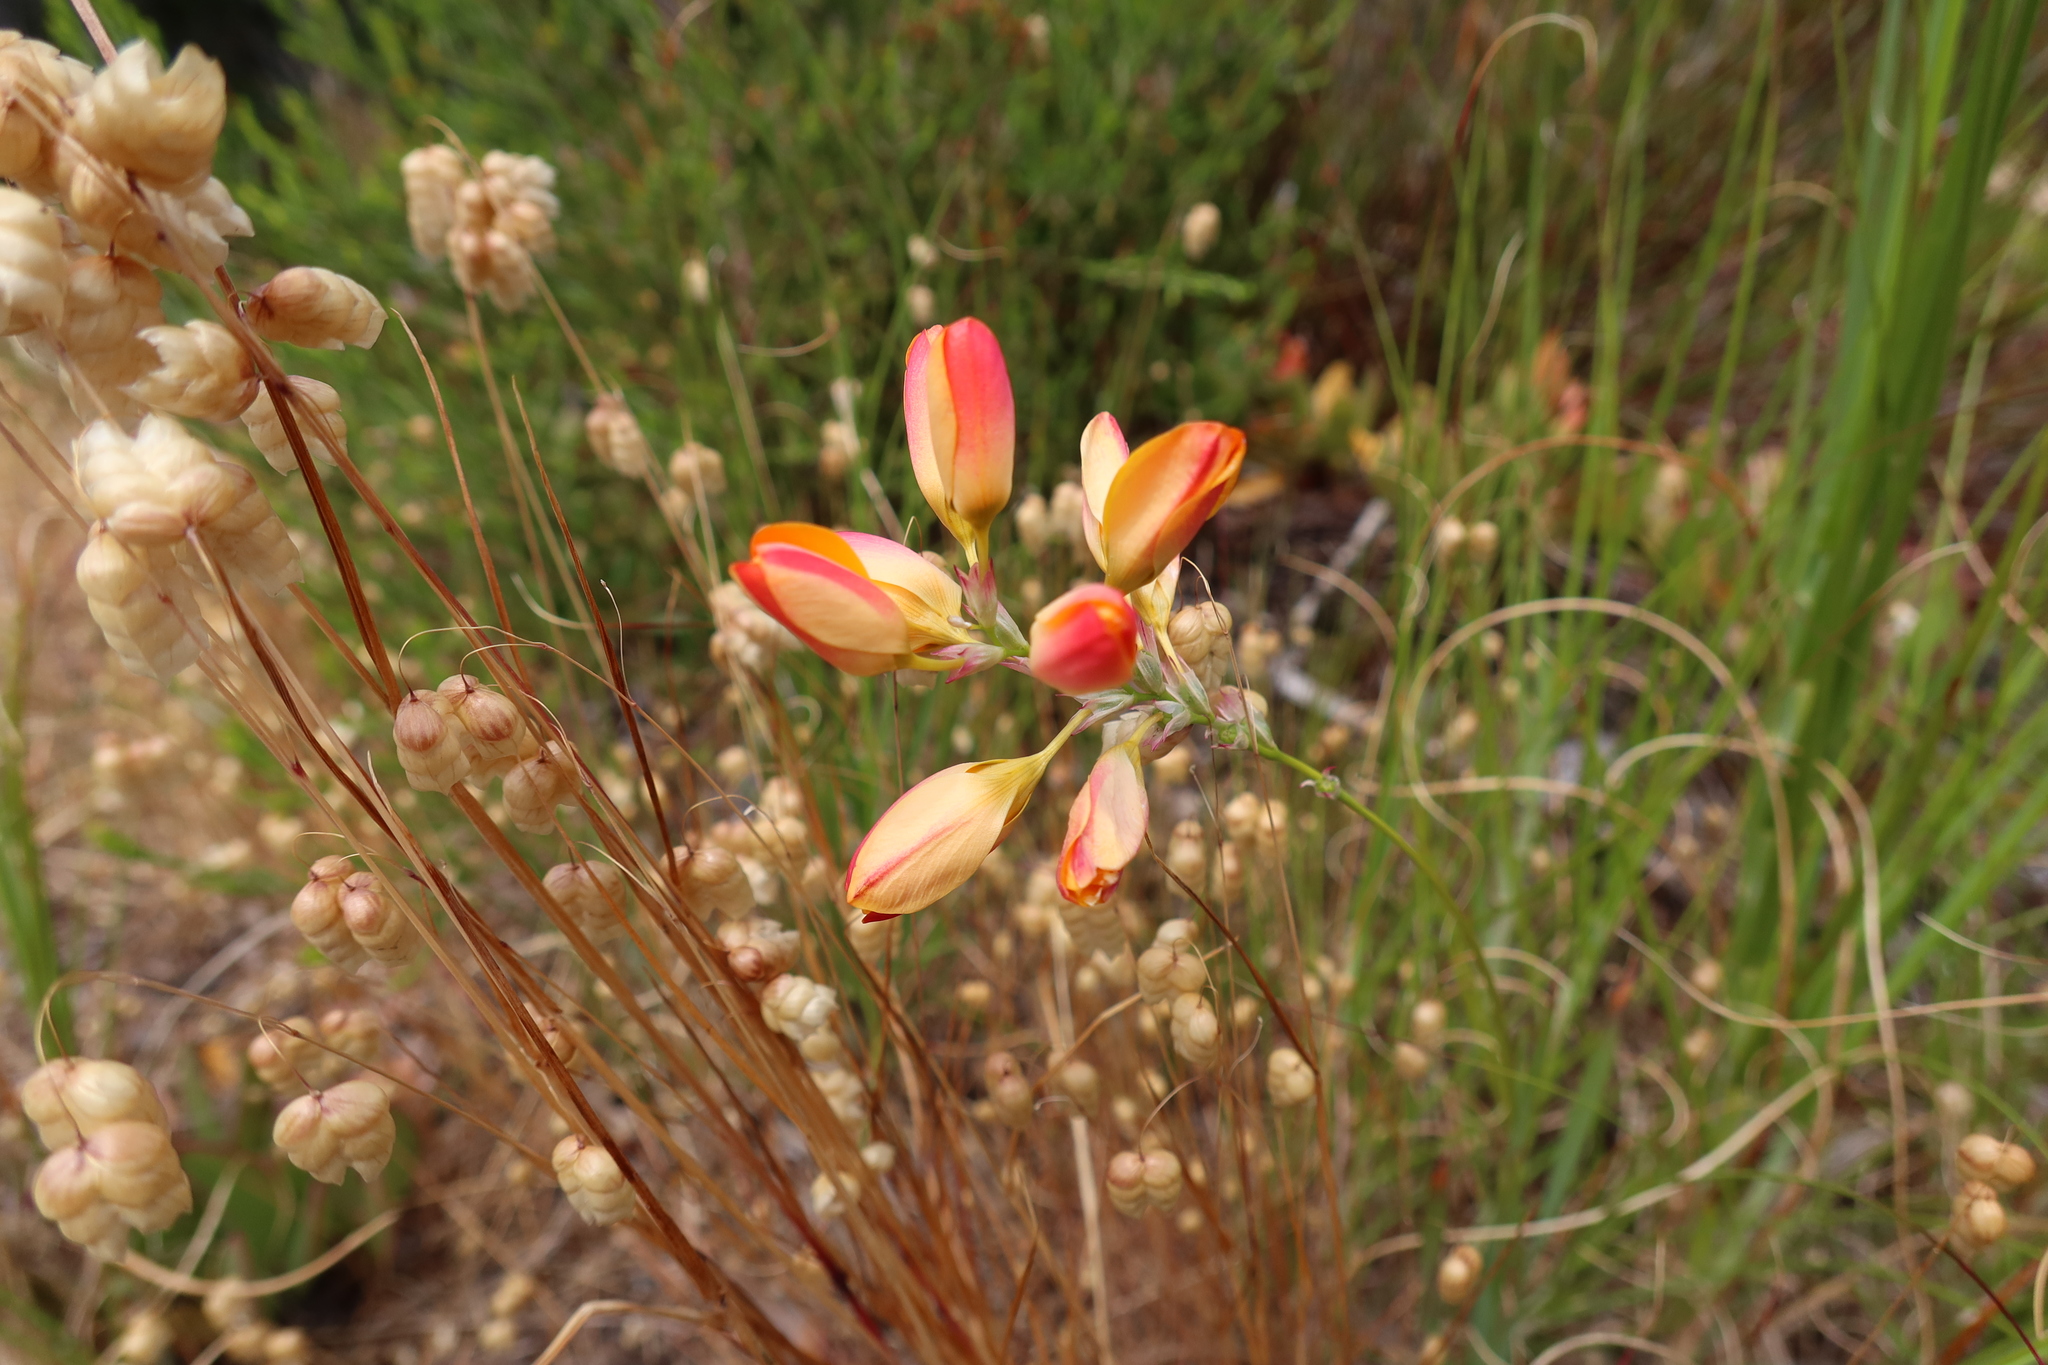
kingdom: Plantae
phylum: Tracheophyta
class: Liliopsida
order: Asparagales
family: Iridaceae
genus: Ixia
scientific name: Ixia dubia
